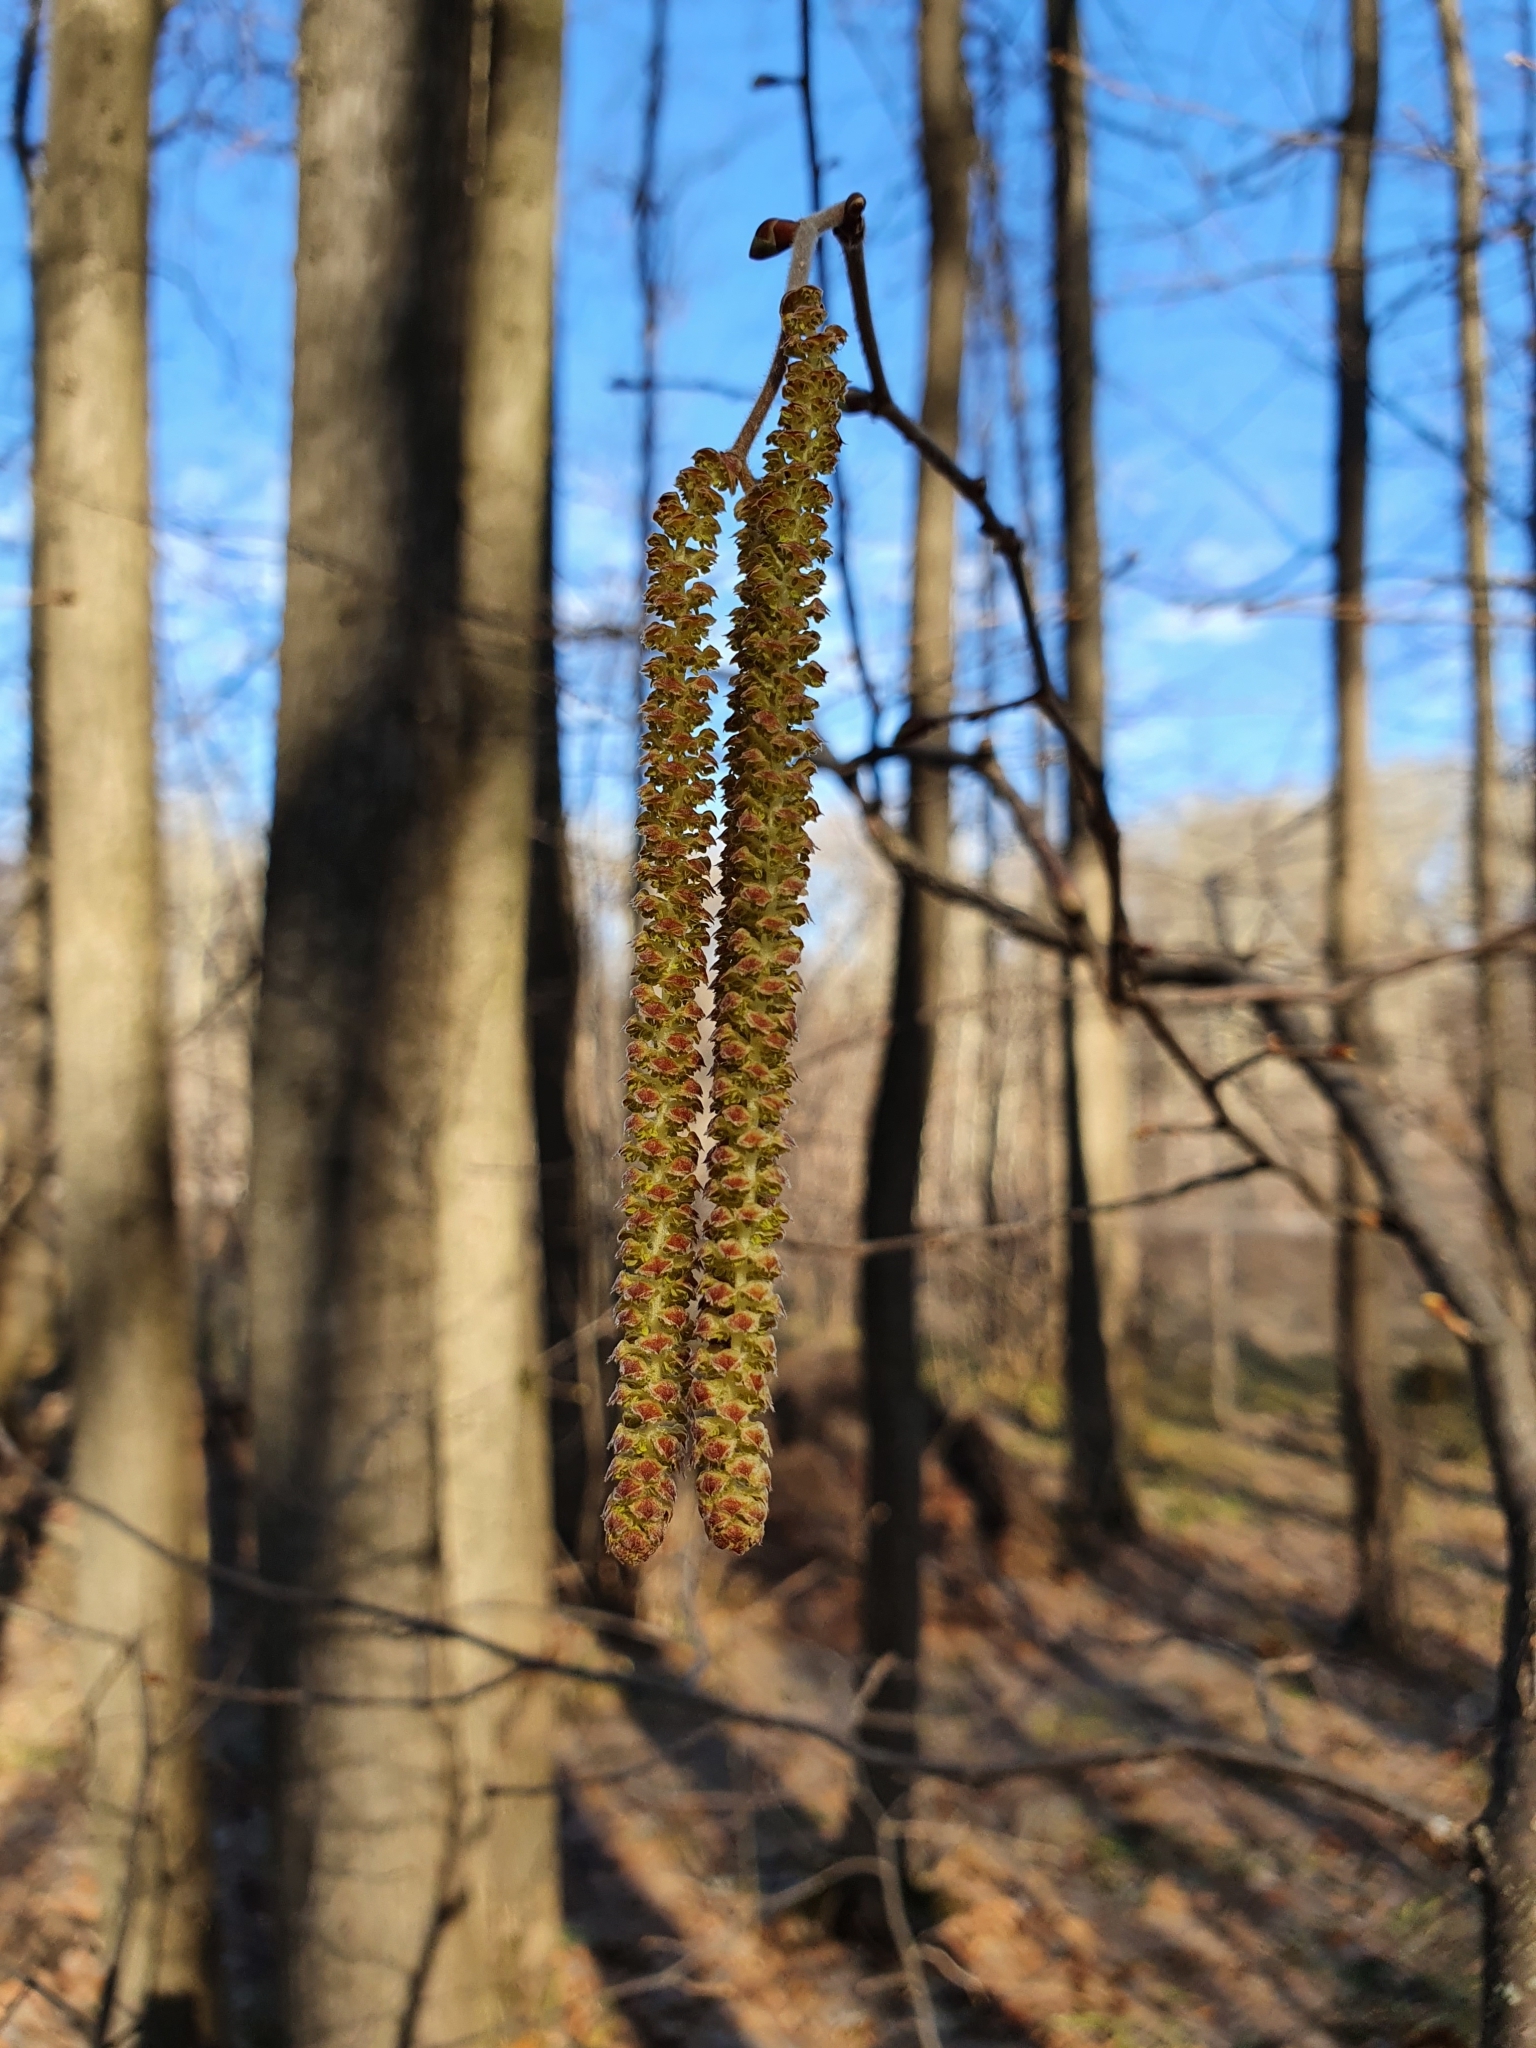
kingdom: Plantae
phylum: Tracheophyta
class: Magnoliopsida
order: Fagales
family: Betulaceae
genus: Corylus
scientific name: Corylus avellana
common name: European hazel
